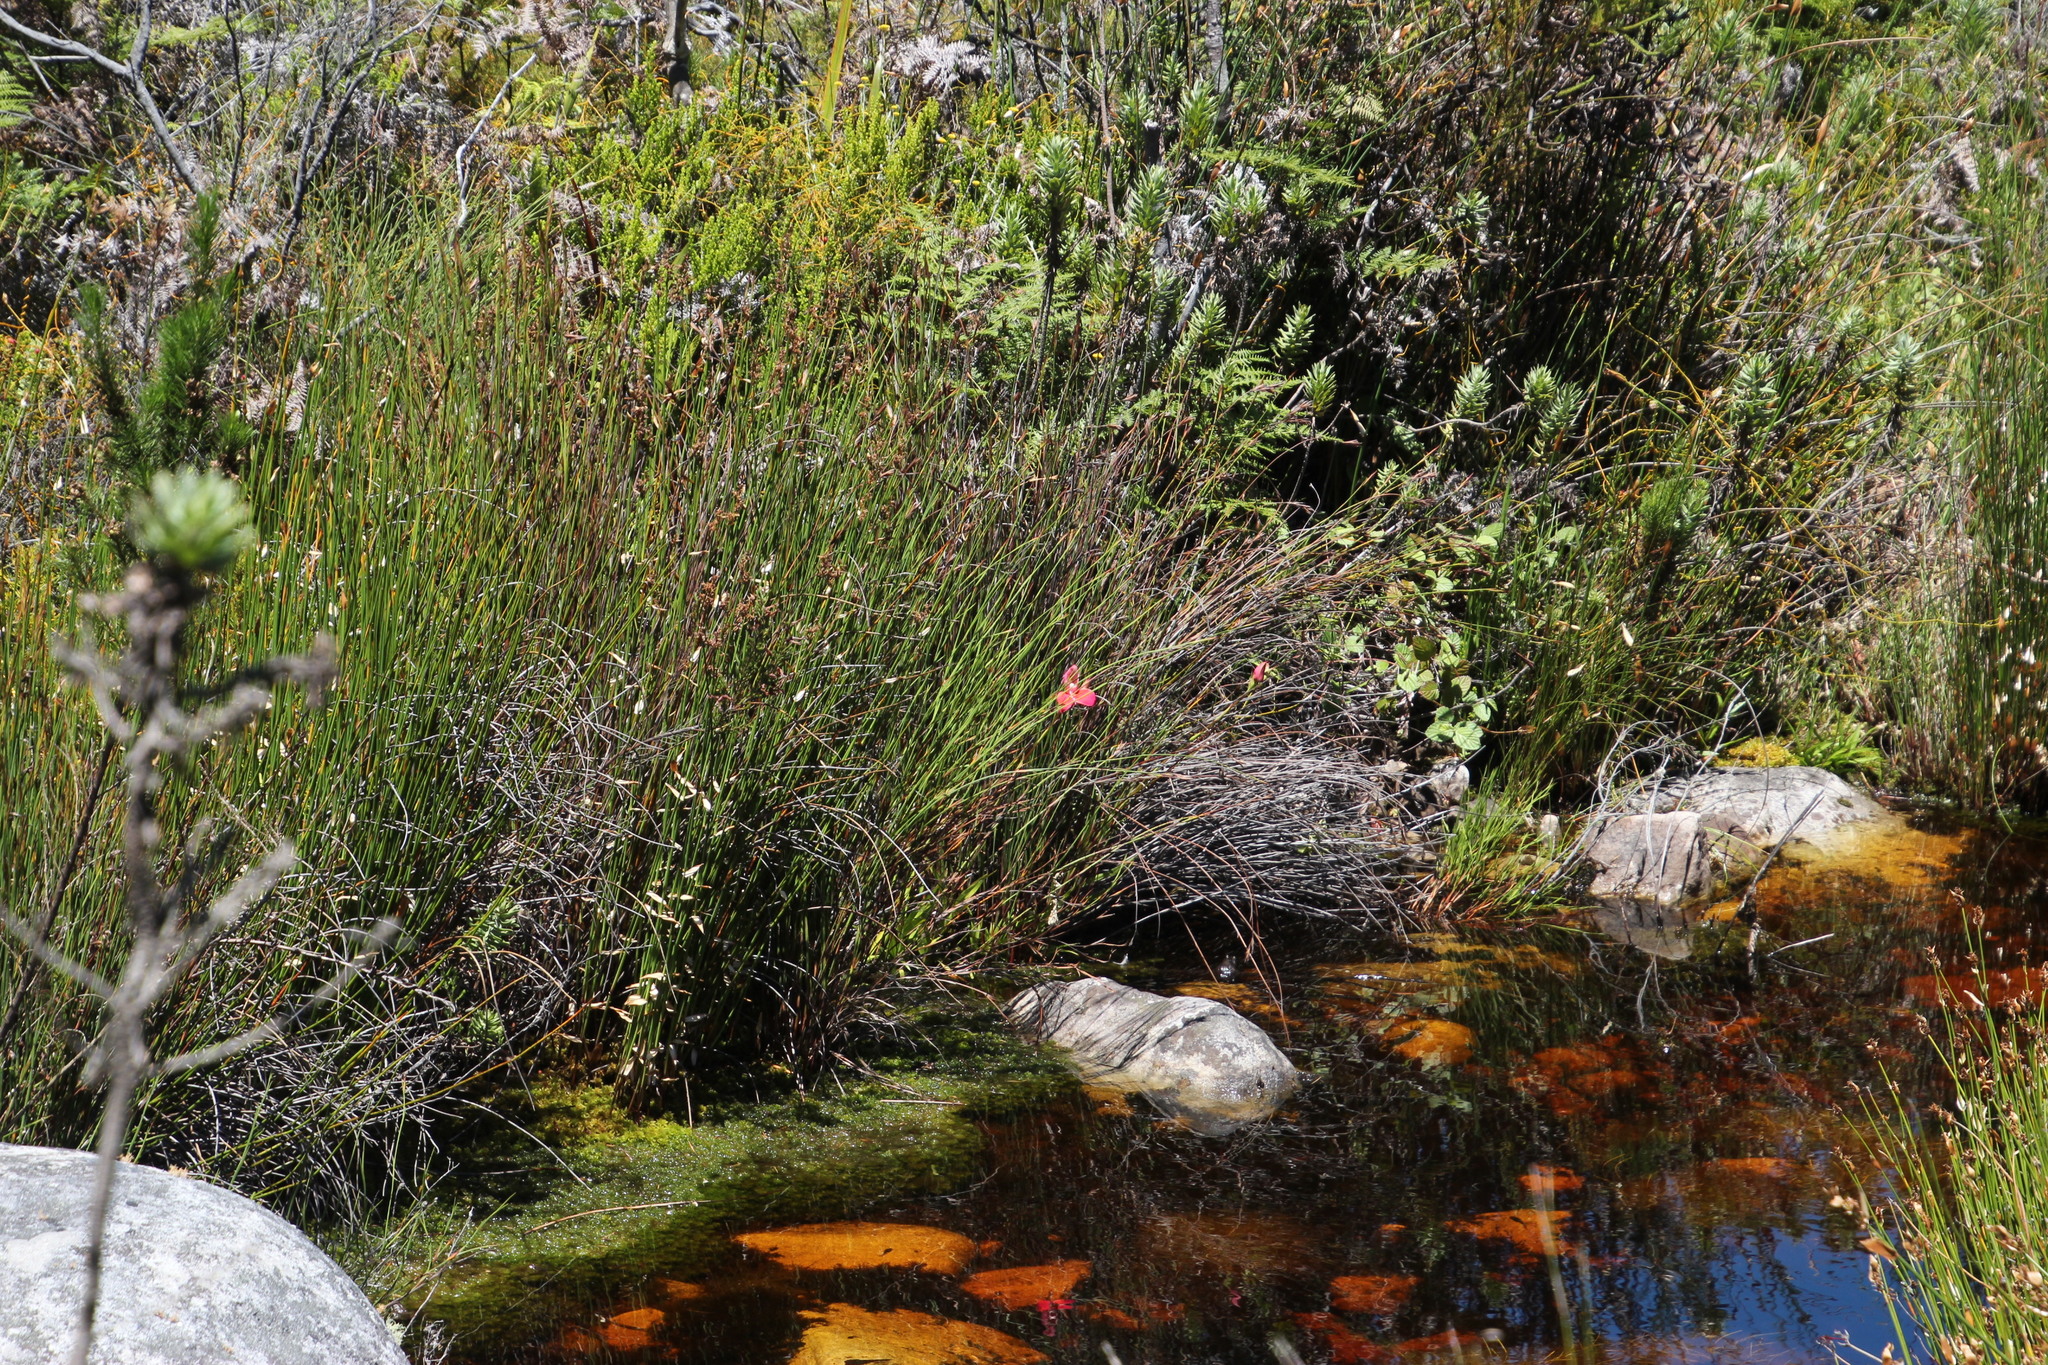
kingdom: Plantae
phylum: Tracheophyta
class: Liliopsida
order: Asparagales
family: Orchidaceae
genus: Disa
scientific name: Disa uniflora
